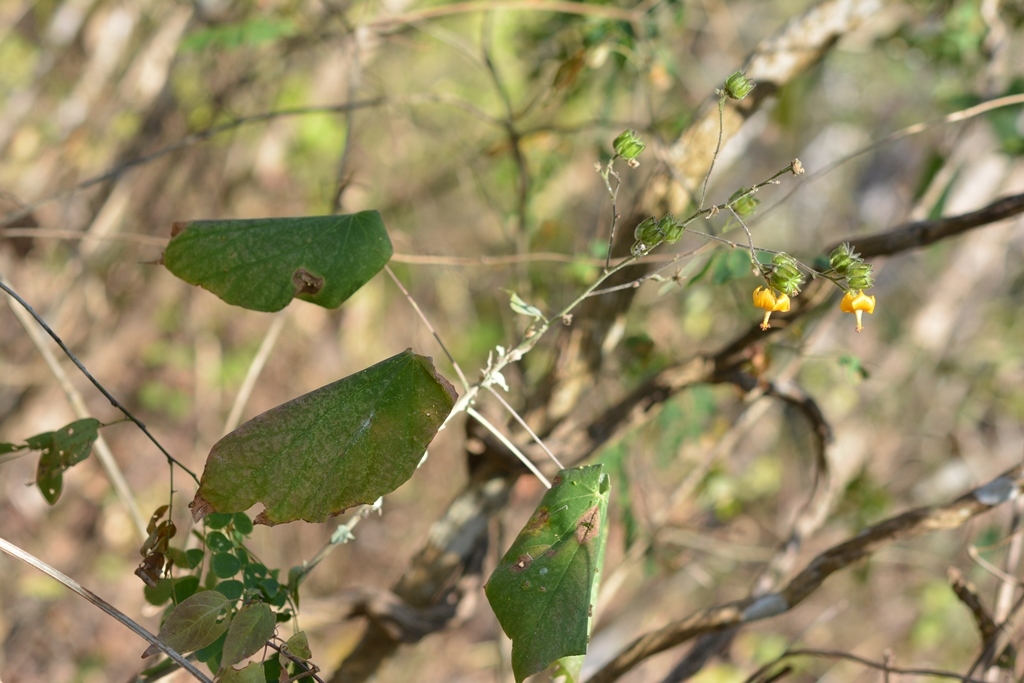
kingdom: Plantae
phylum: Tracheophyta
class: Magnoliopsida
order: Malvales
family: Malvaceae
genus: Abutilon
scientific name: Abutilon andrieuxii
